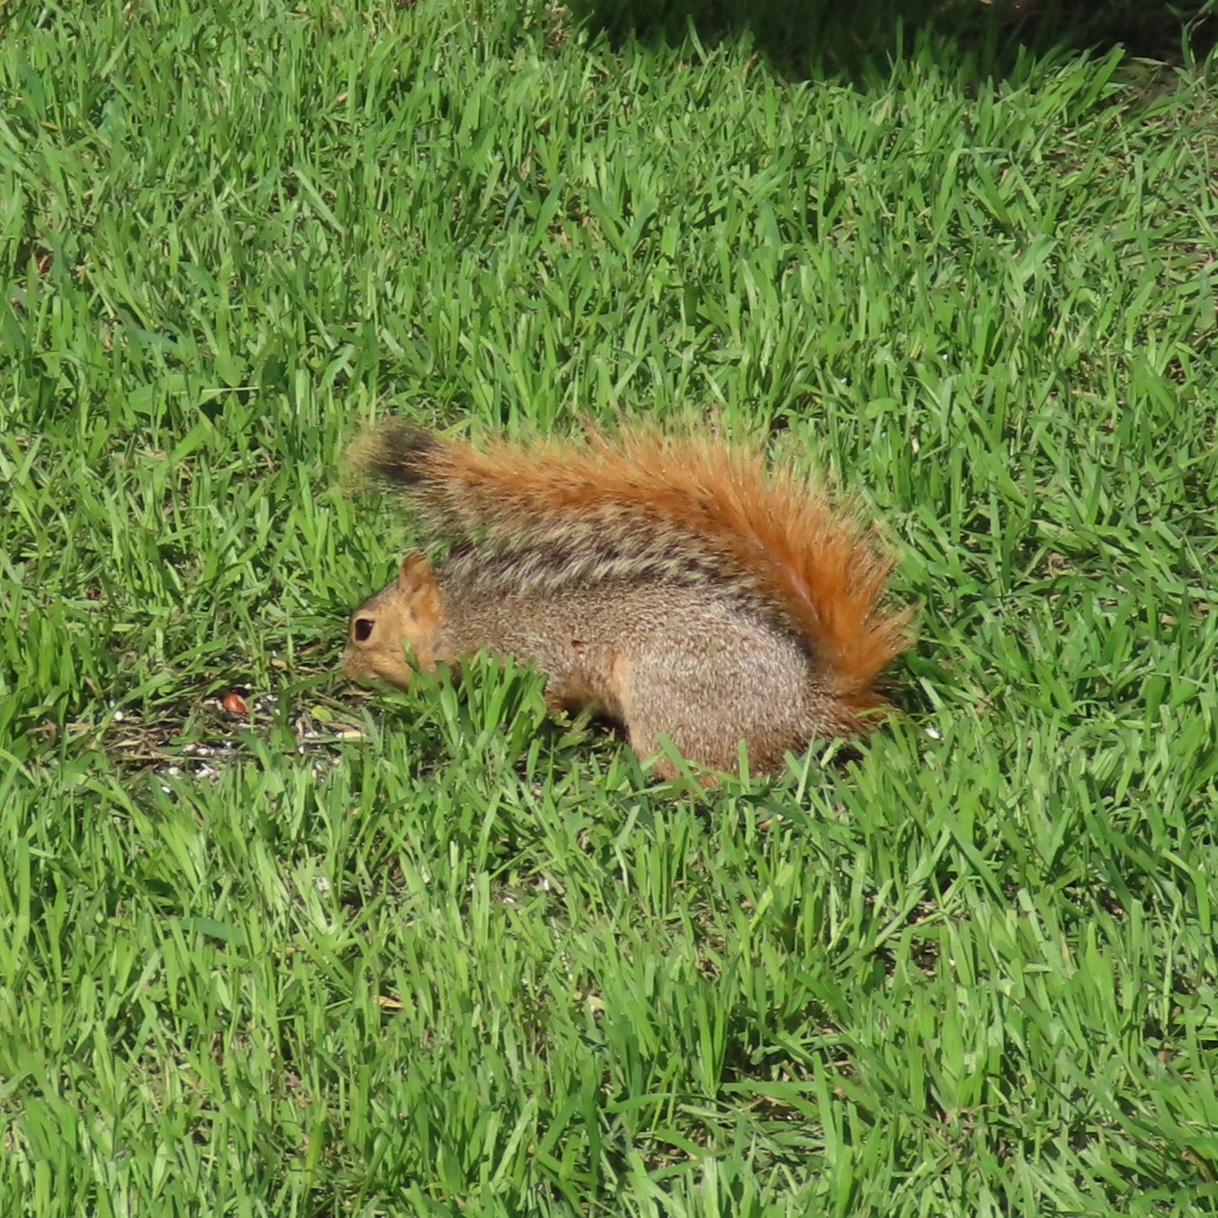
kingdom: Animalia
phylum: Chordata
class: Mammalia
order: Rodentia
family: Sciuridae
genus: Sciurus
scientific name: Sciurus niger
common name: Fox squirrel
